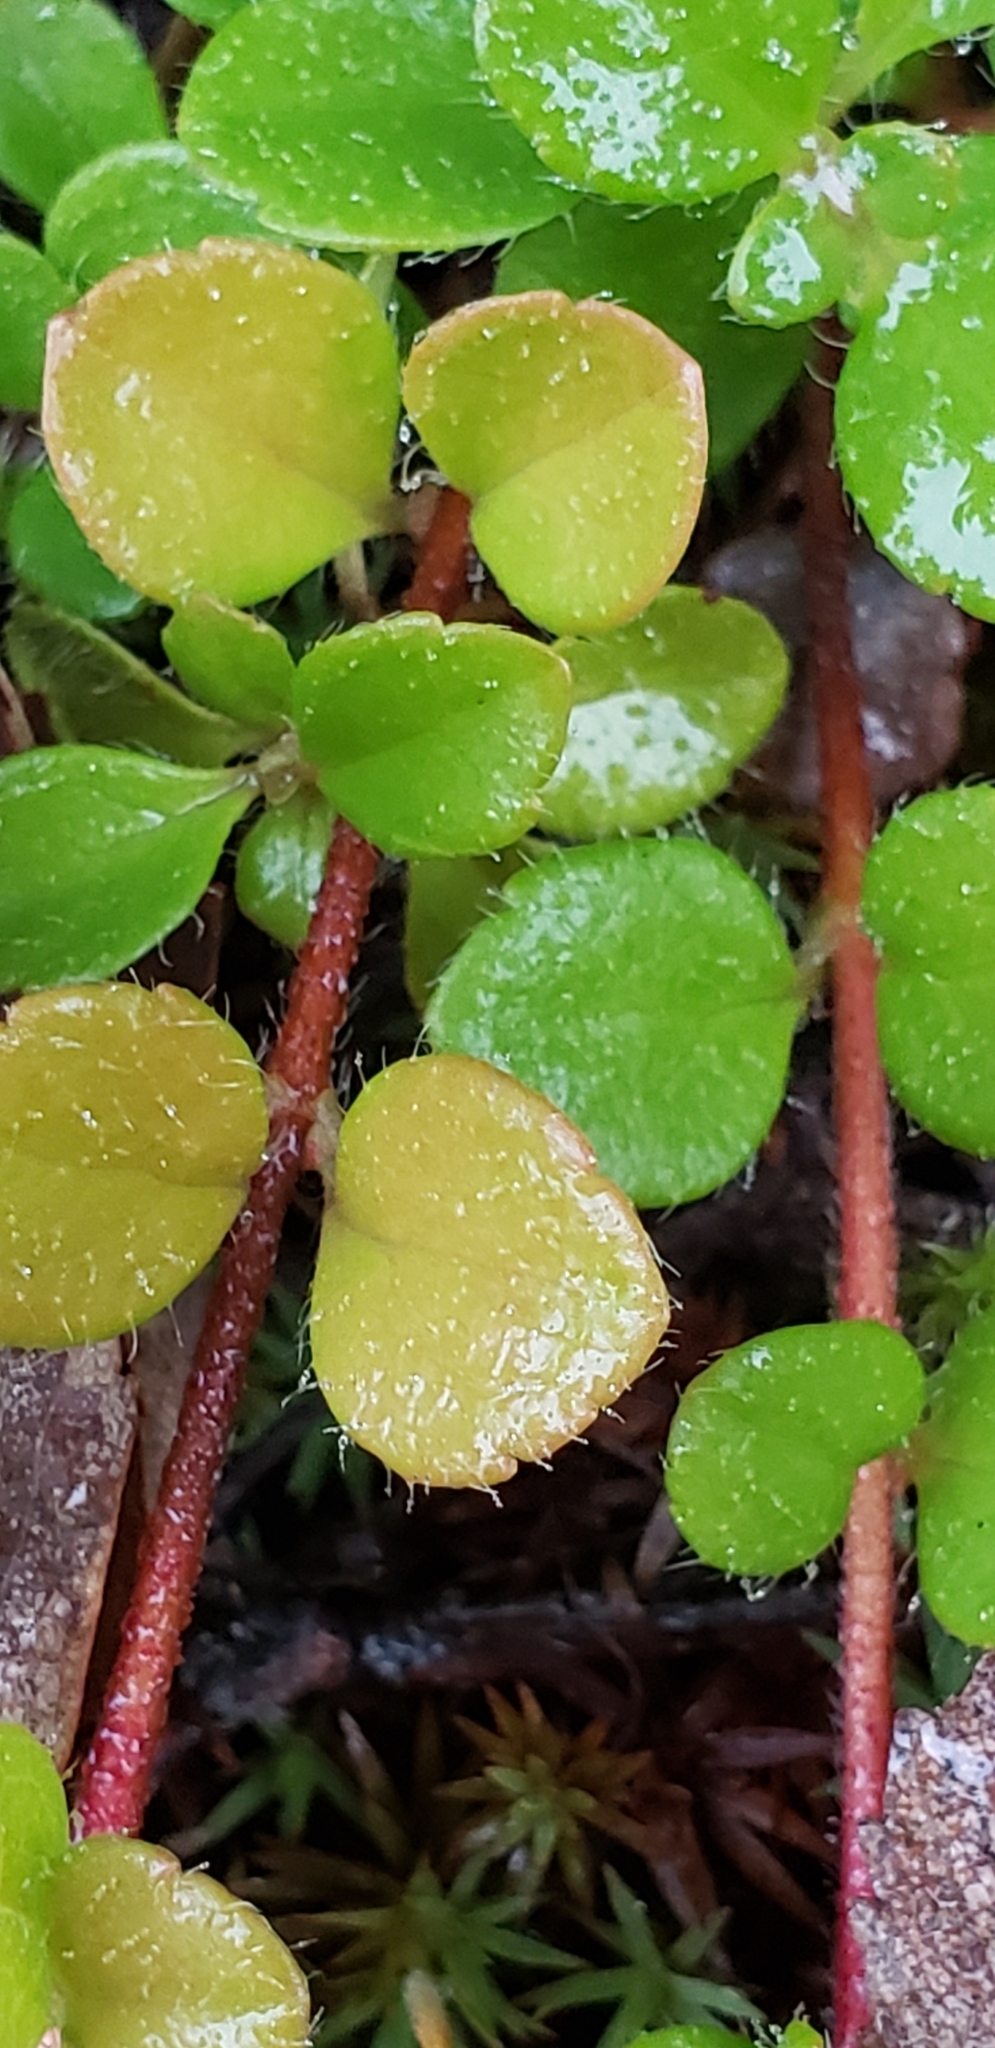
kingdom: Plantae
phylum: Tracheophyta
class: Magnoliopsida
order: Dipsacales
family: Caprifoliaceae
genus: Linnaea
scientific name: Linnaea borealis
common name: Twinflower
